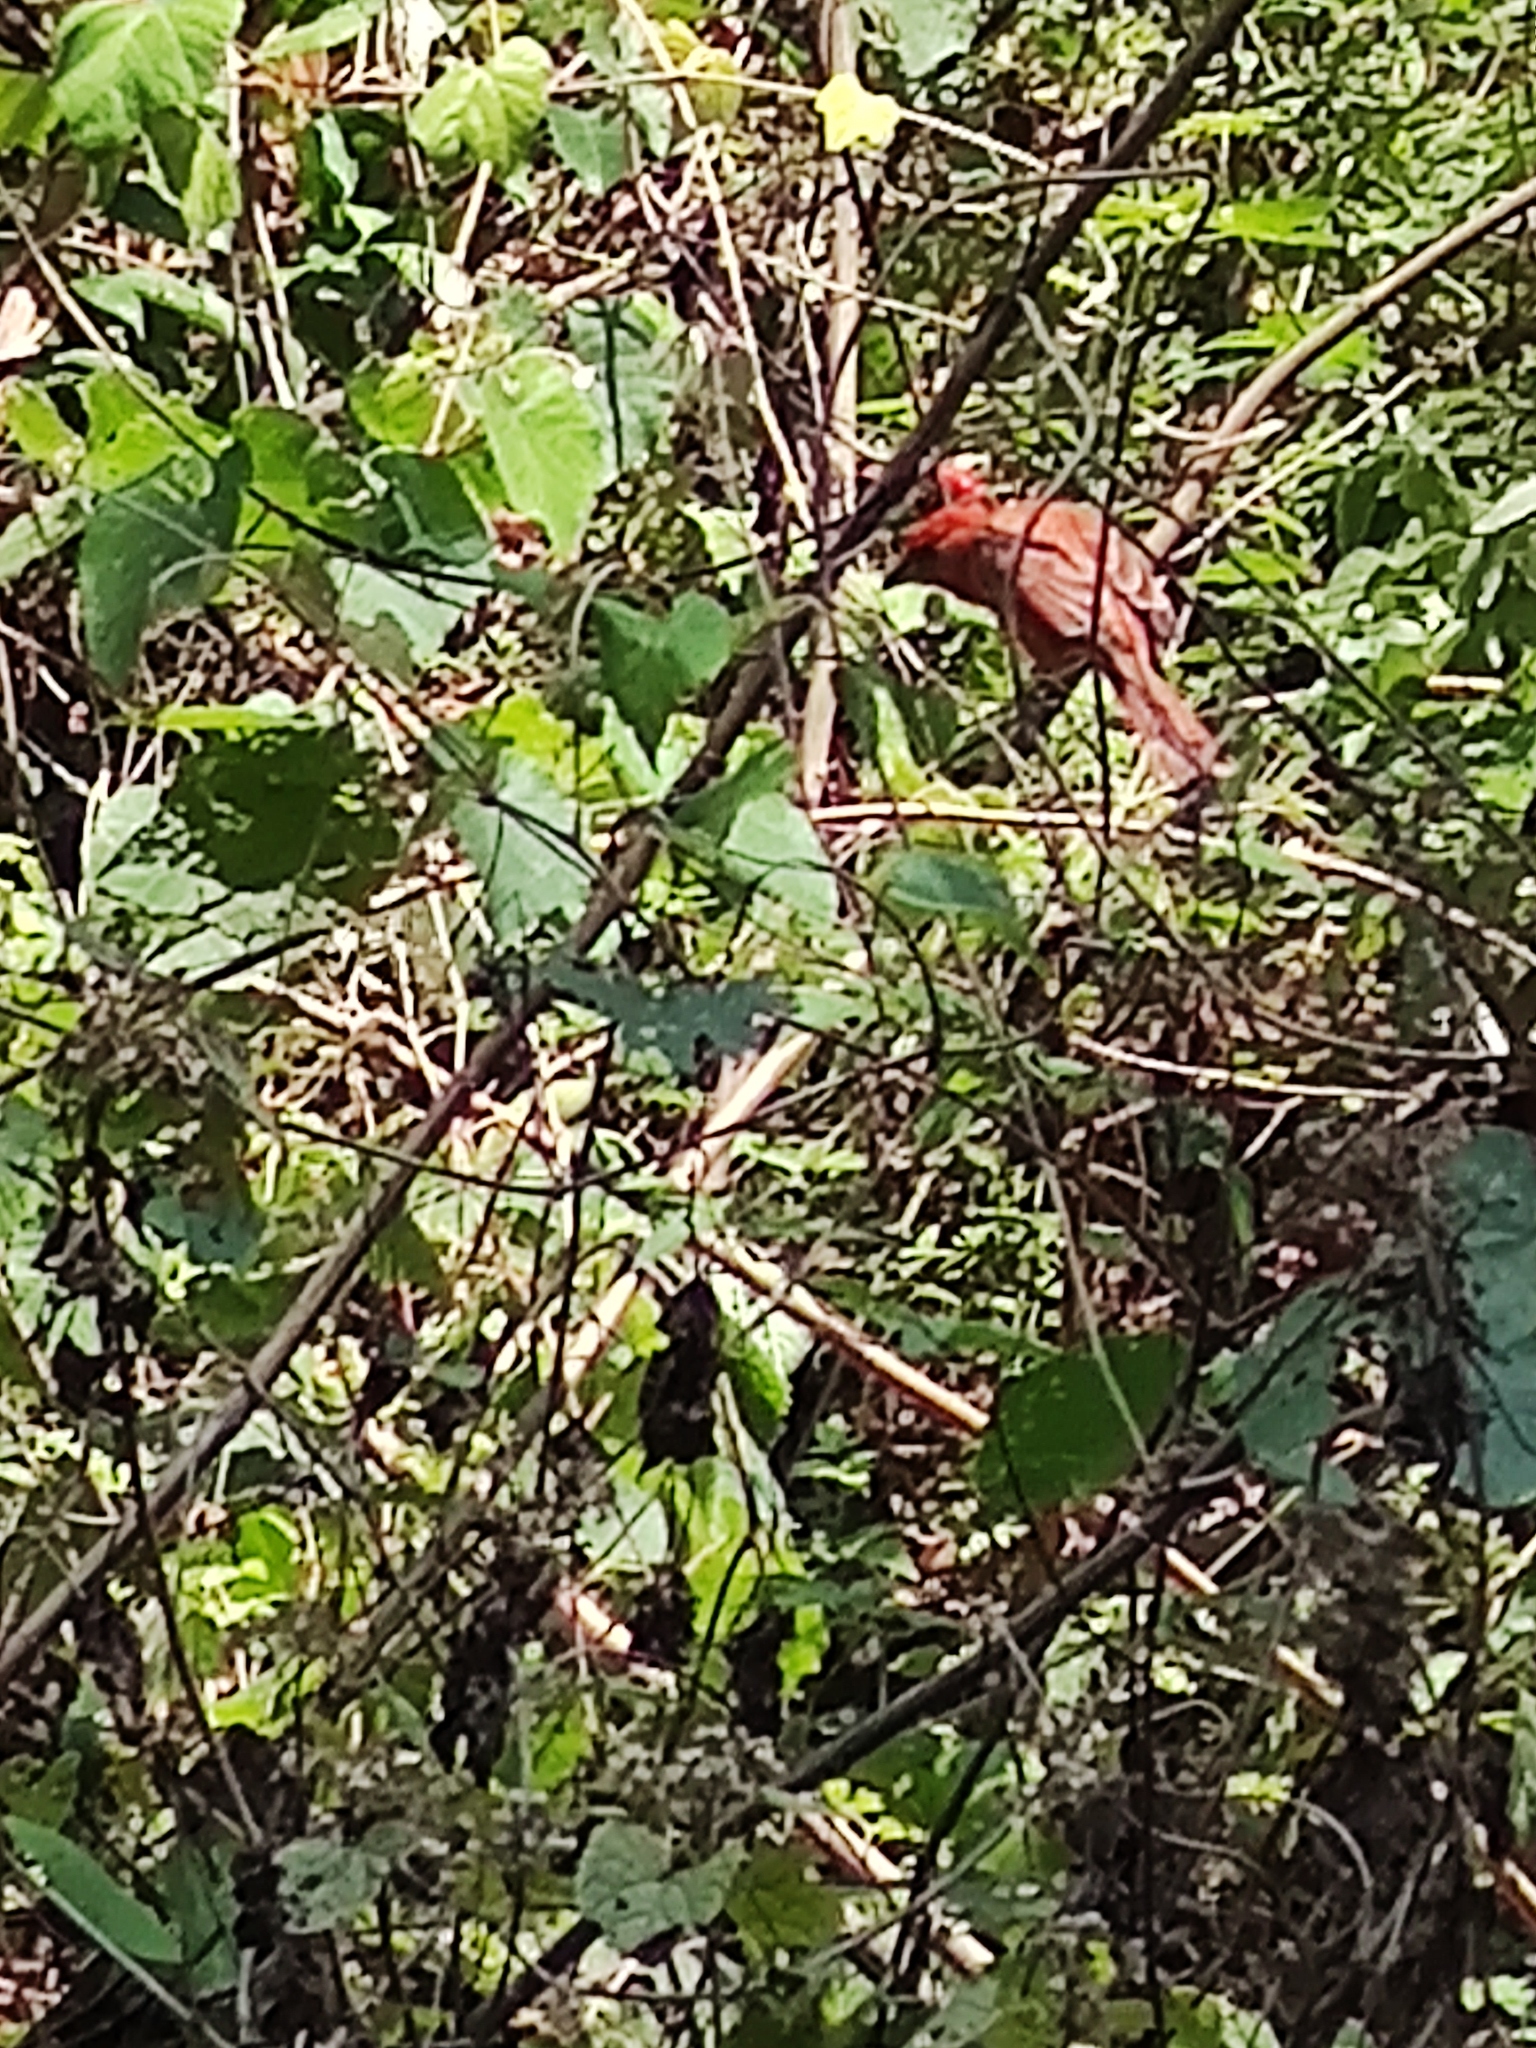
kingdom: Animalia
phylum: Chordata
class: Aves
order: Passeriformes
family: Cardinalidae
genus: Piranga
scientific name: Piranga flava
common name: Red tanager
